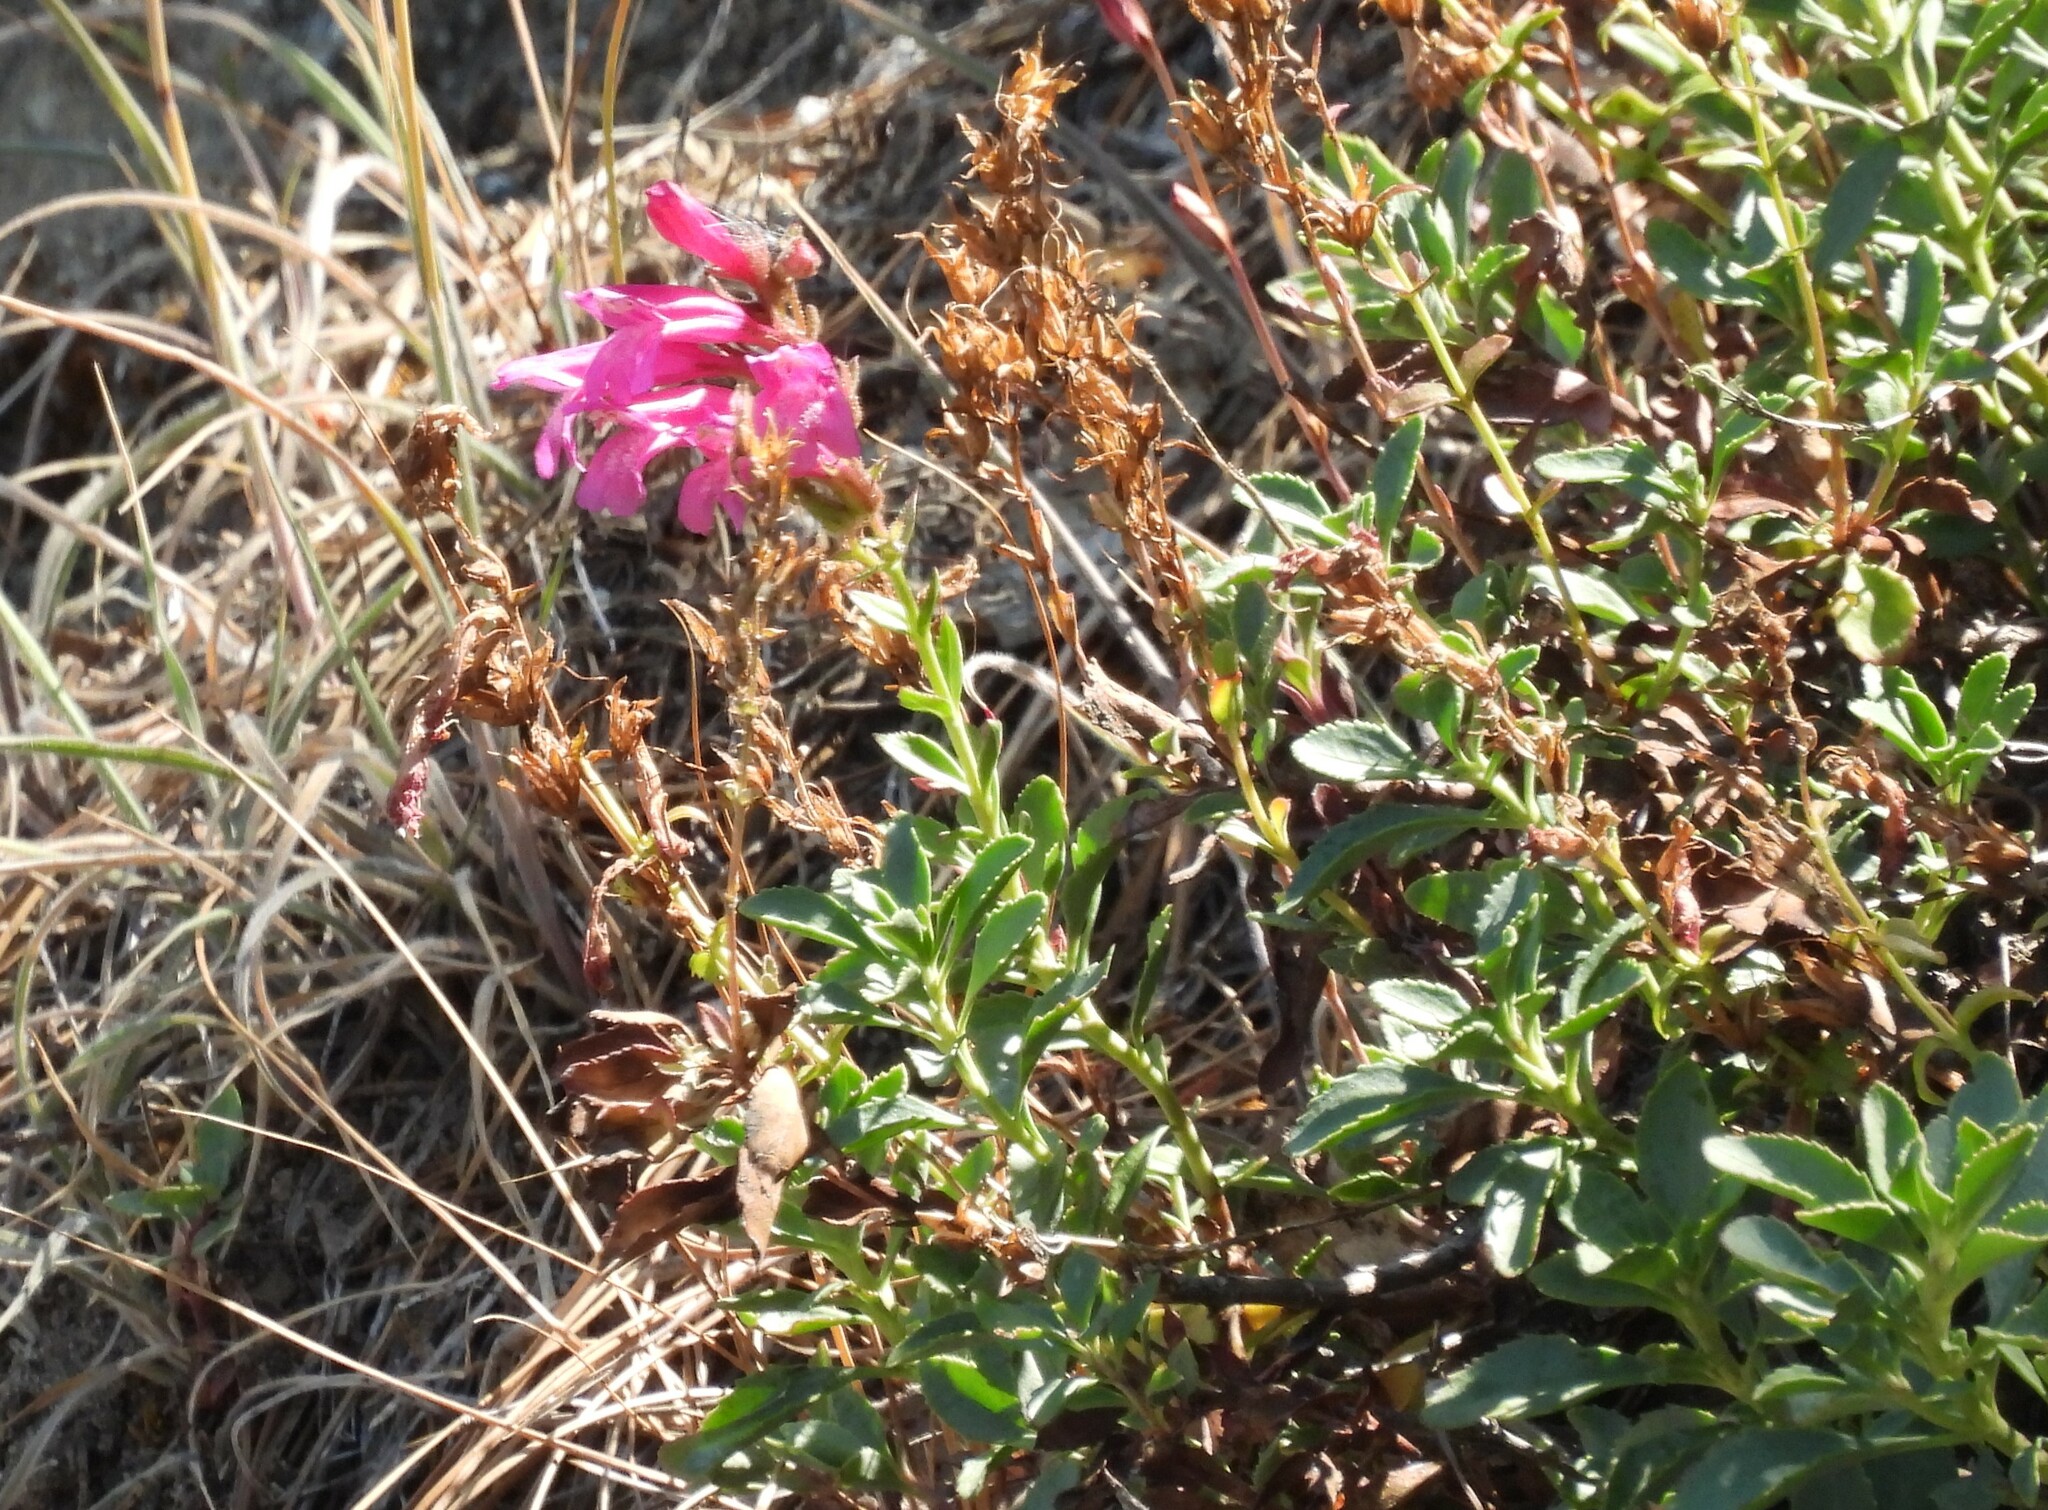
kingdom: Plantae
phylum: Tracheophyta
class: Magnoliopsida
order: Lamiales
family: Plantaginaceae
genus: Penstemon
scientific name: Penstemon newberryi
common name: Mountain-pride
